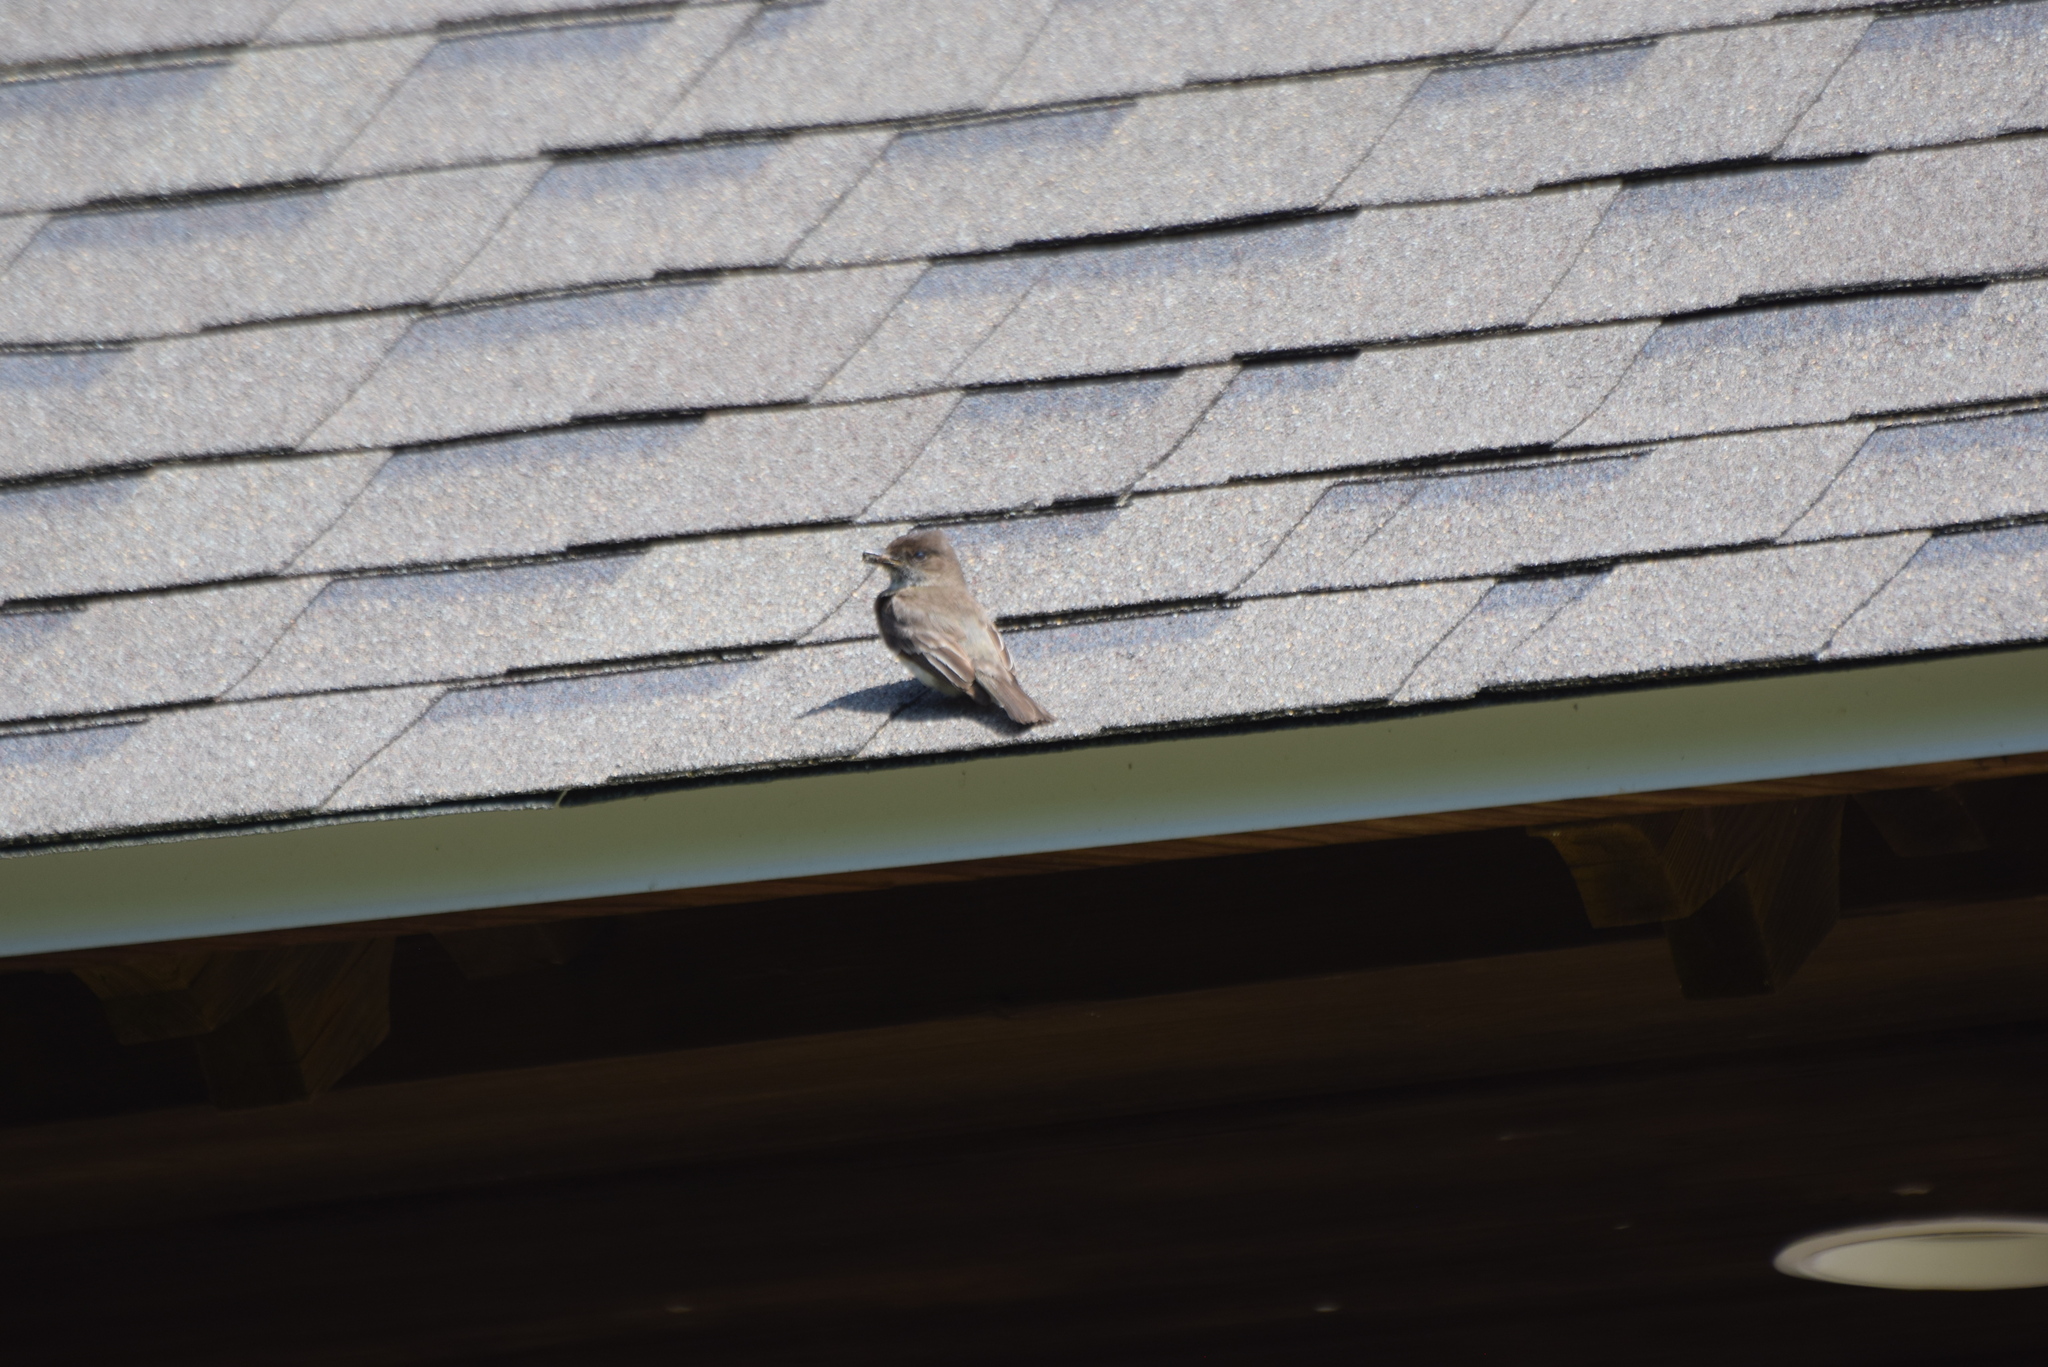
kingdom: Animalia
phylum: Chordata
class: Aves
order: Passeriformes
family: Tyrannidae
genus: Sayornis
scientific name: Sayornis phoebe
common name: Eastern phoebe
